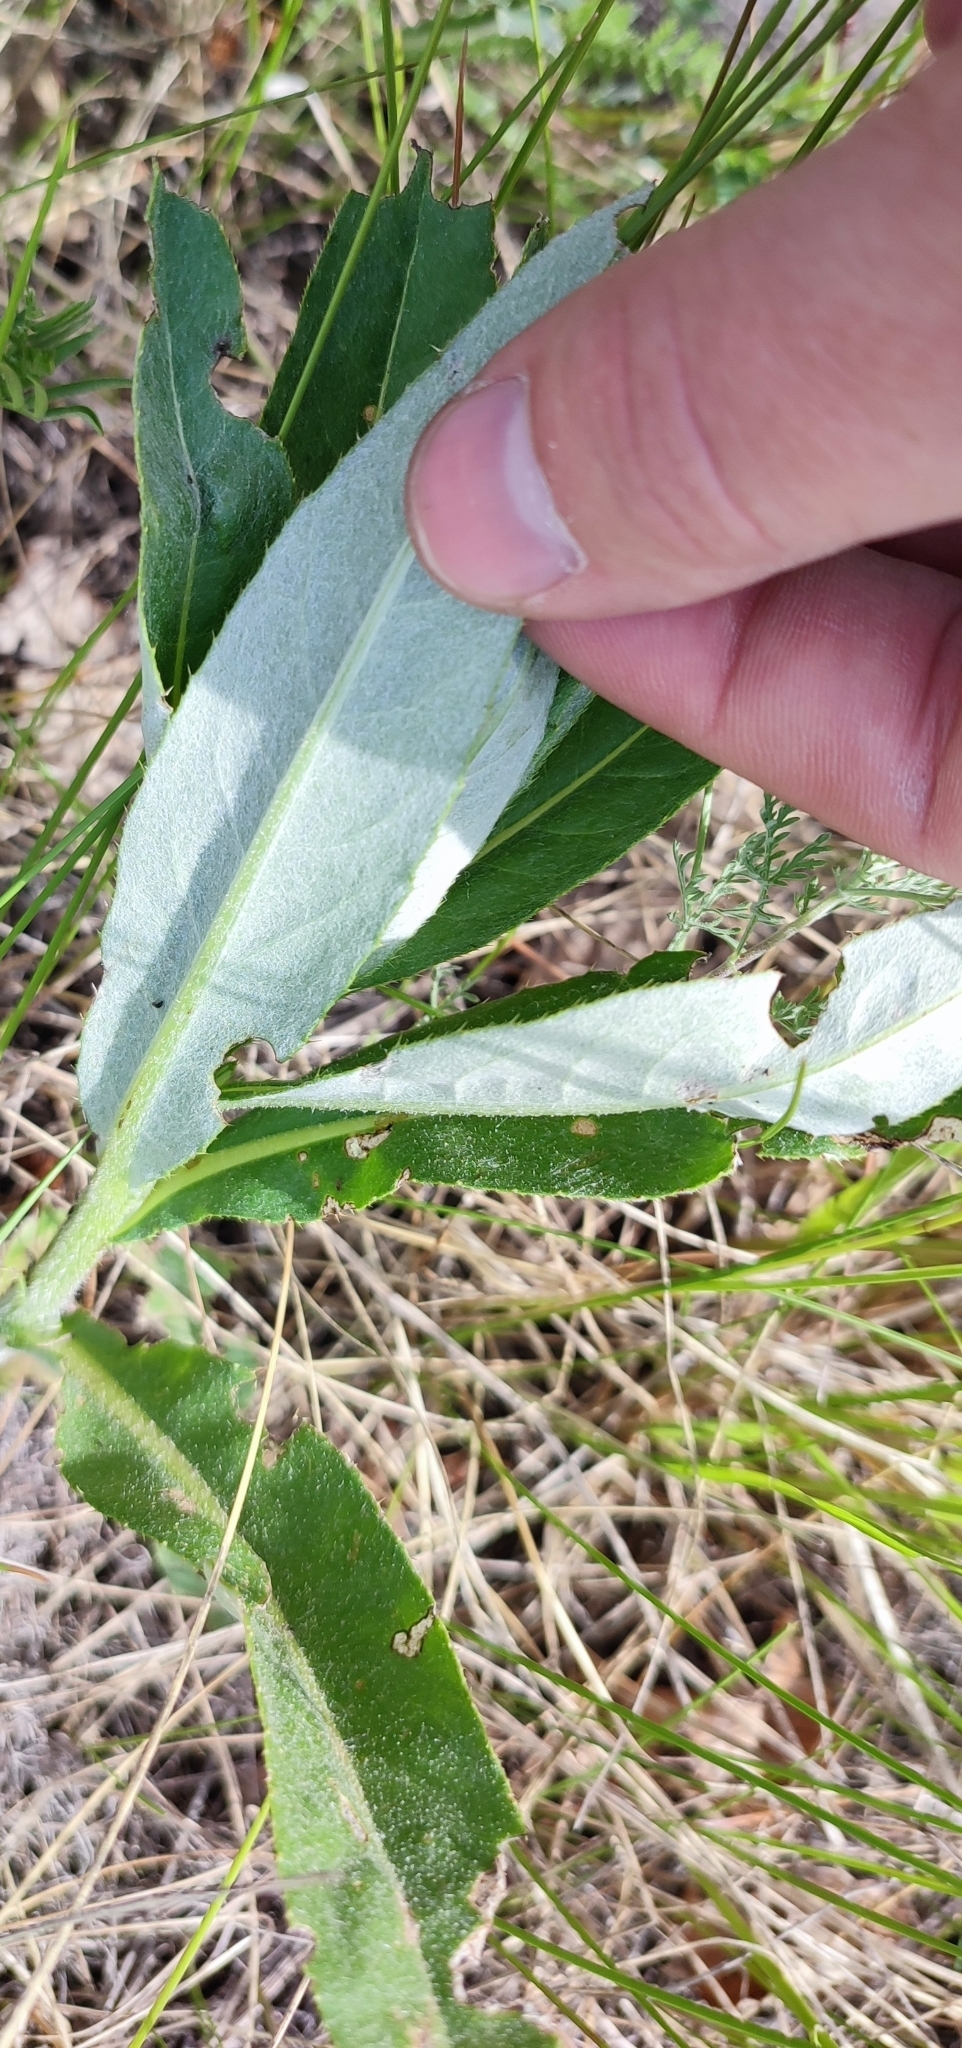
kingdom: Plantae
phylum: Tracheophyta
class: Magnoliopsida
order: Asterales
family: Asteraceae
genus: Cirsium
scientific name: Cirsium arvense
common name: Creeping thistle
